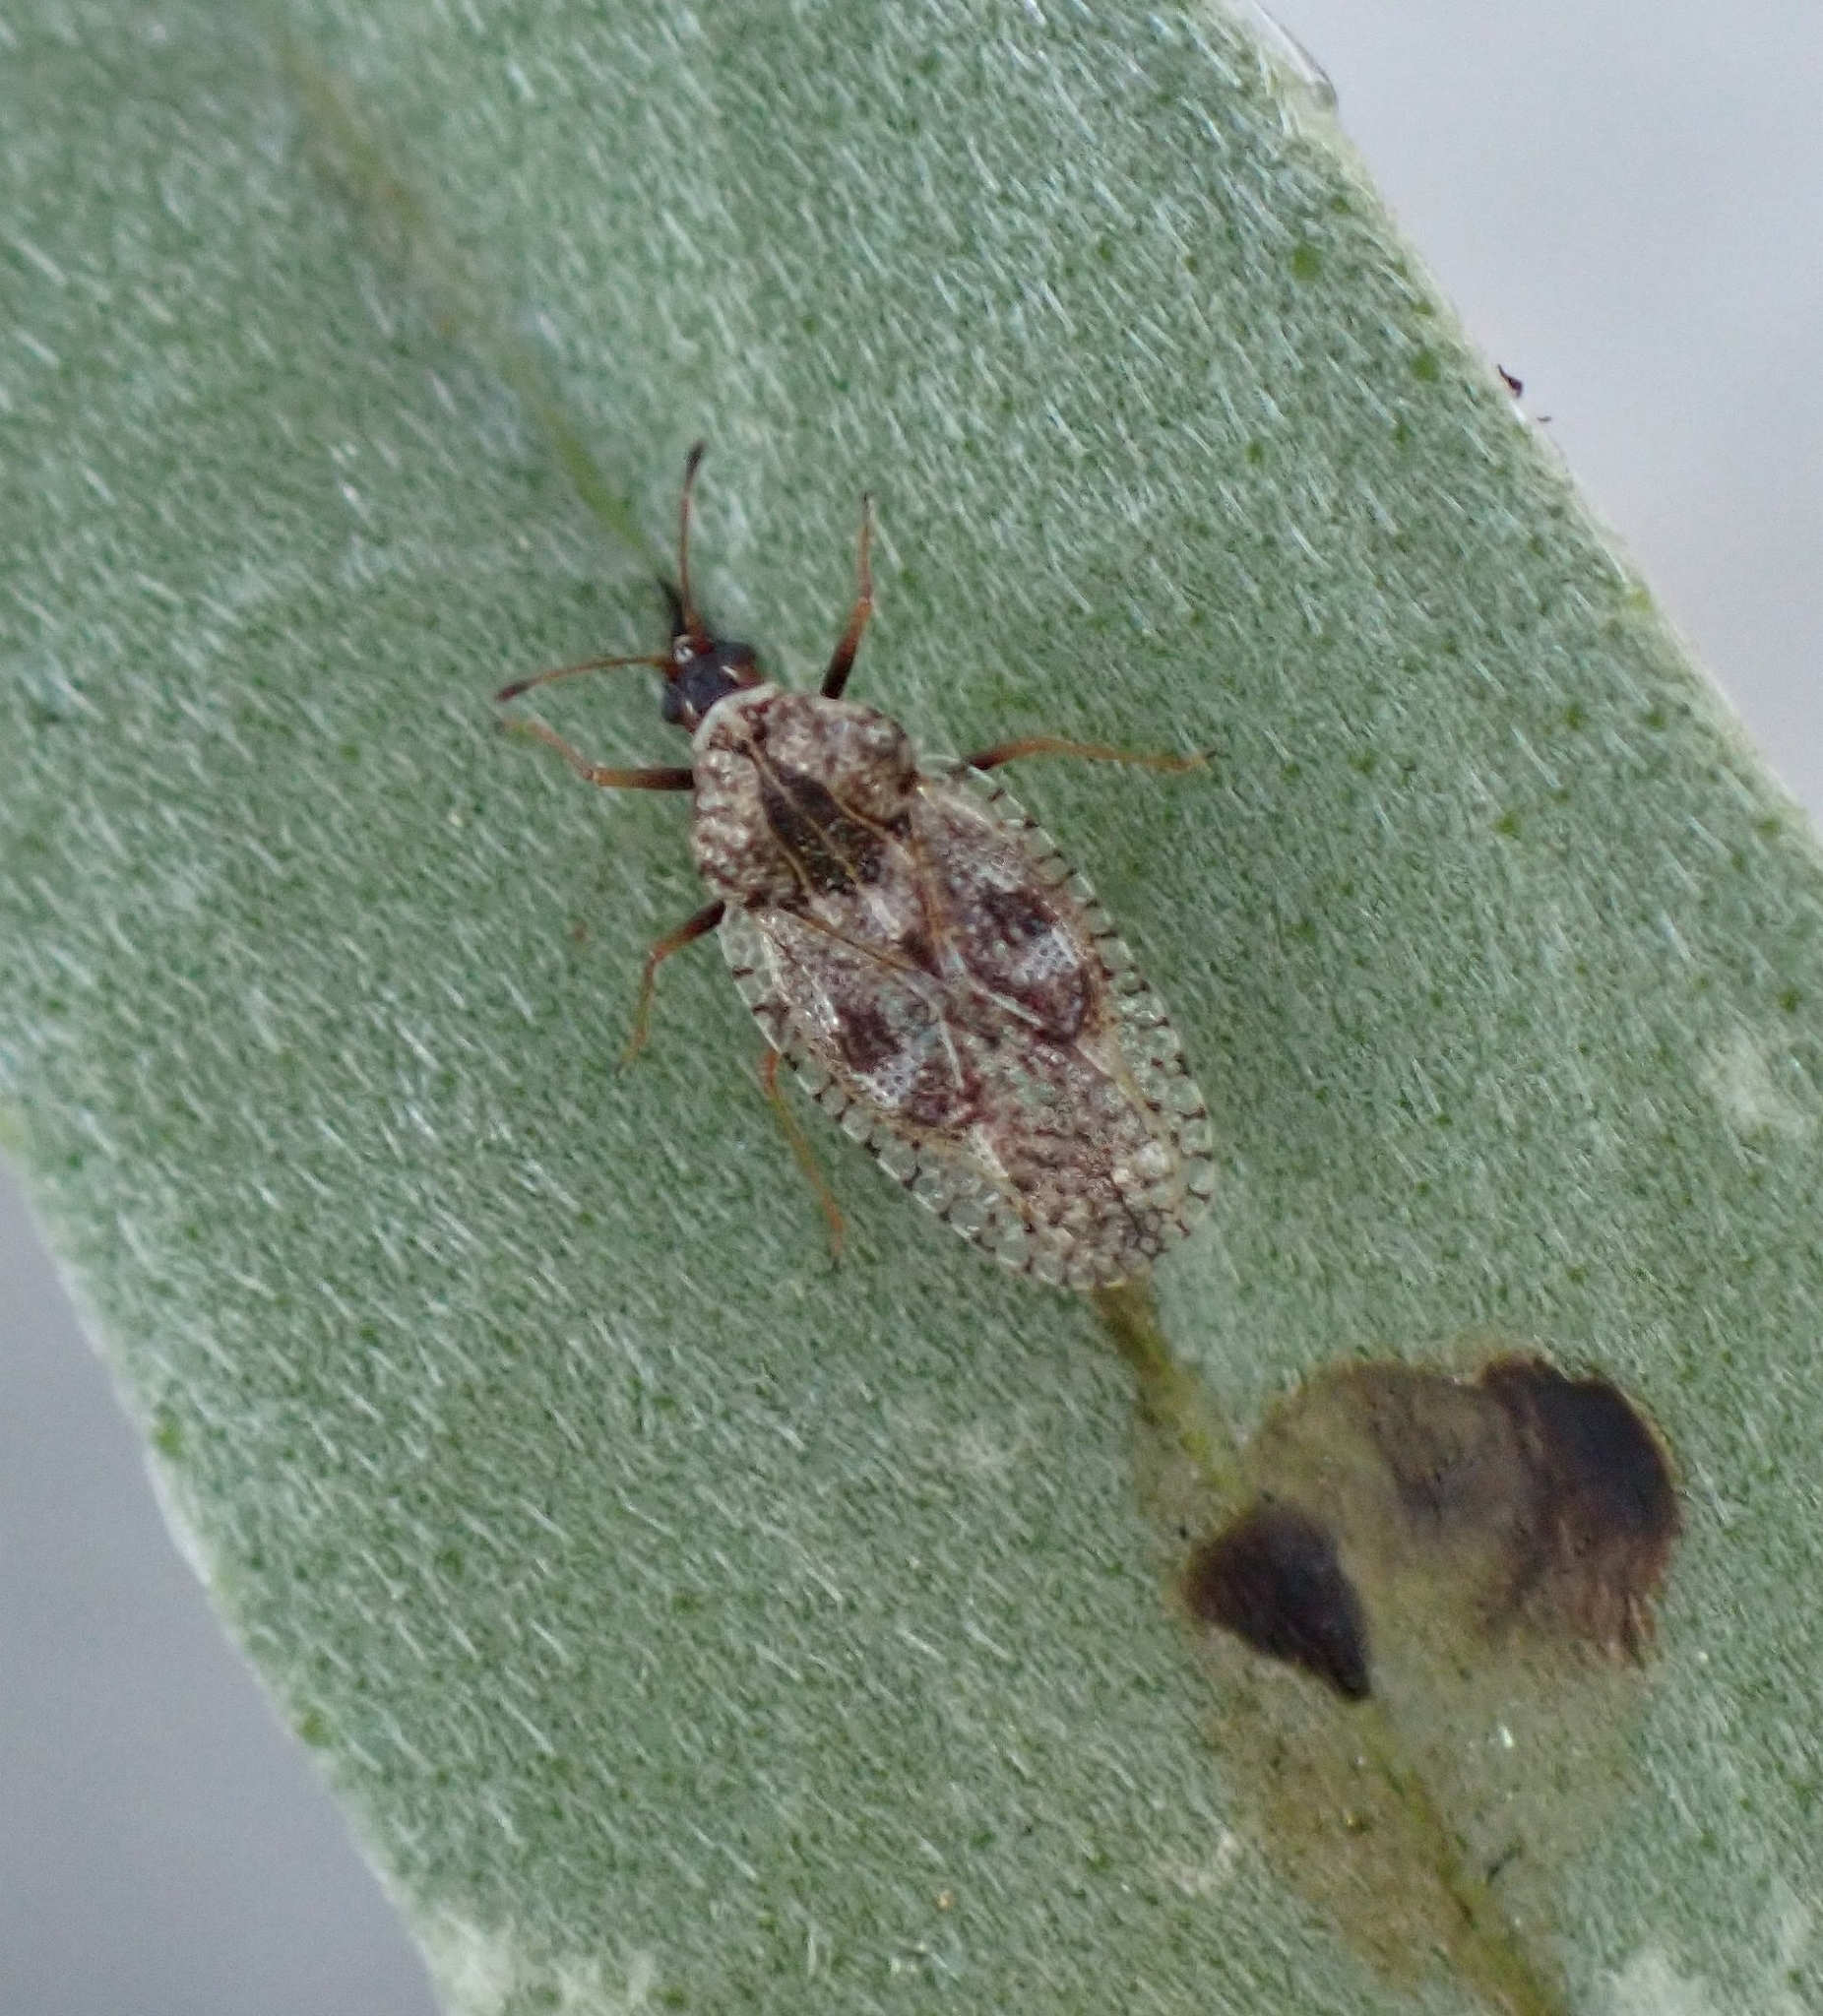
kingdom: Animalia
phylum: Arthropoda
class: Insecta
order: Hemiptera
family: Tingidae
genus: Dictyla
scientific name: Dictyla indigena
